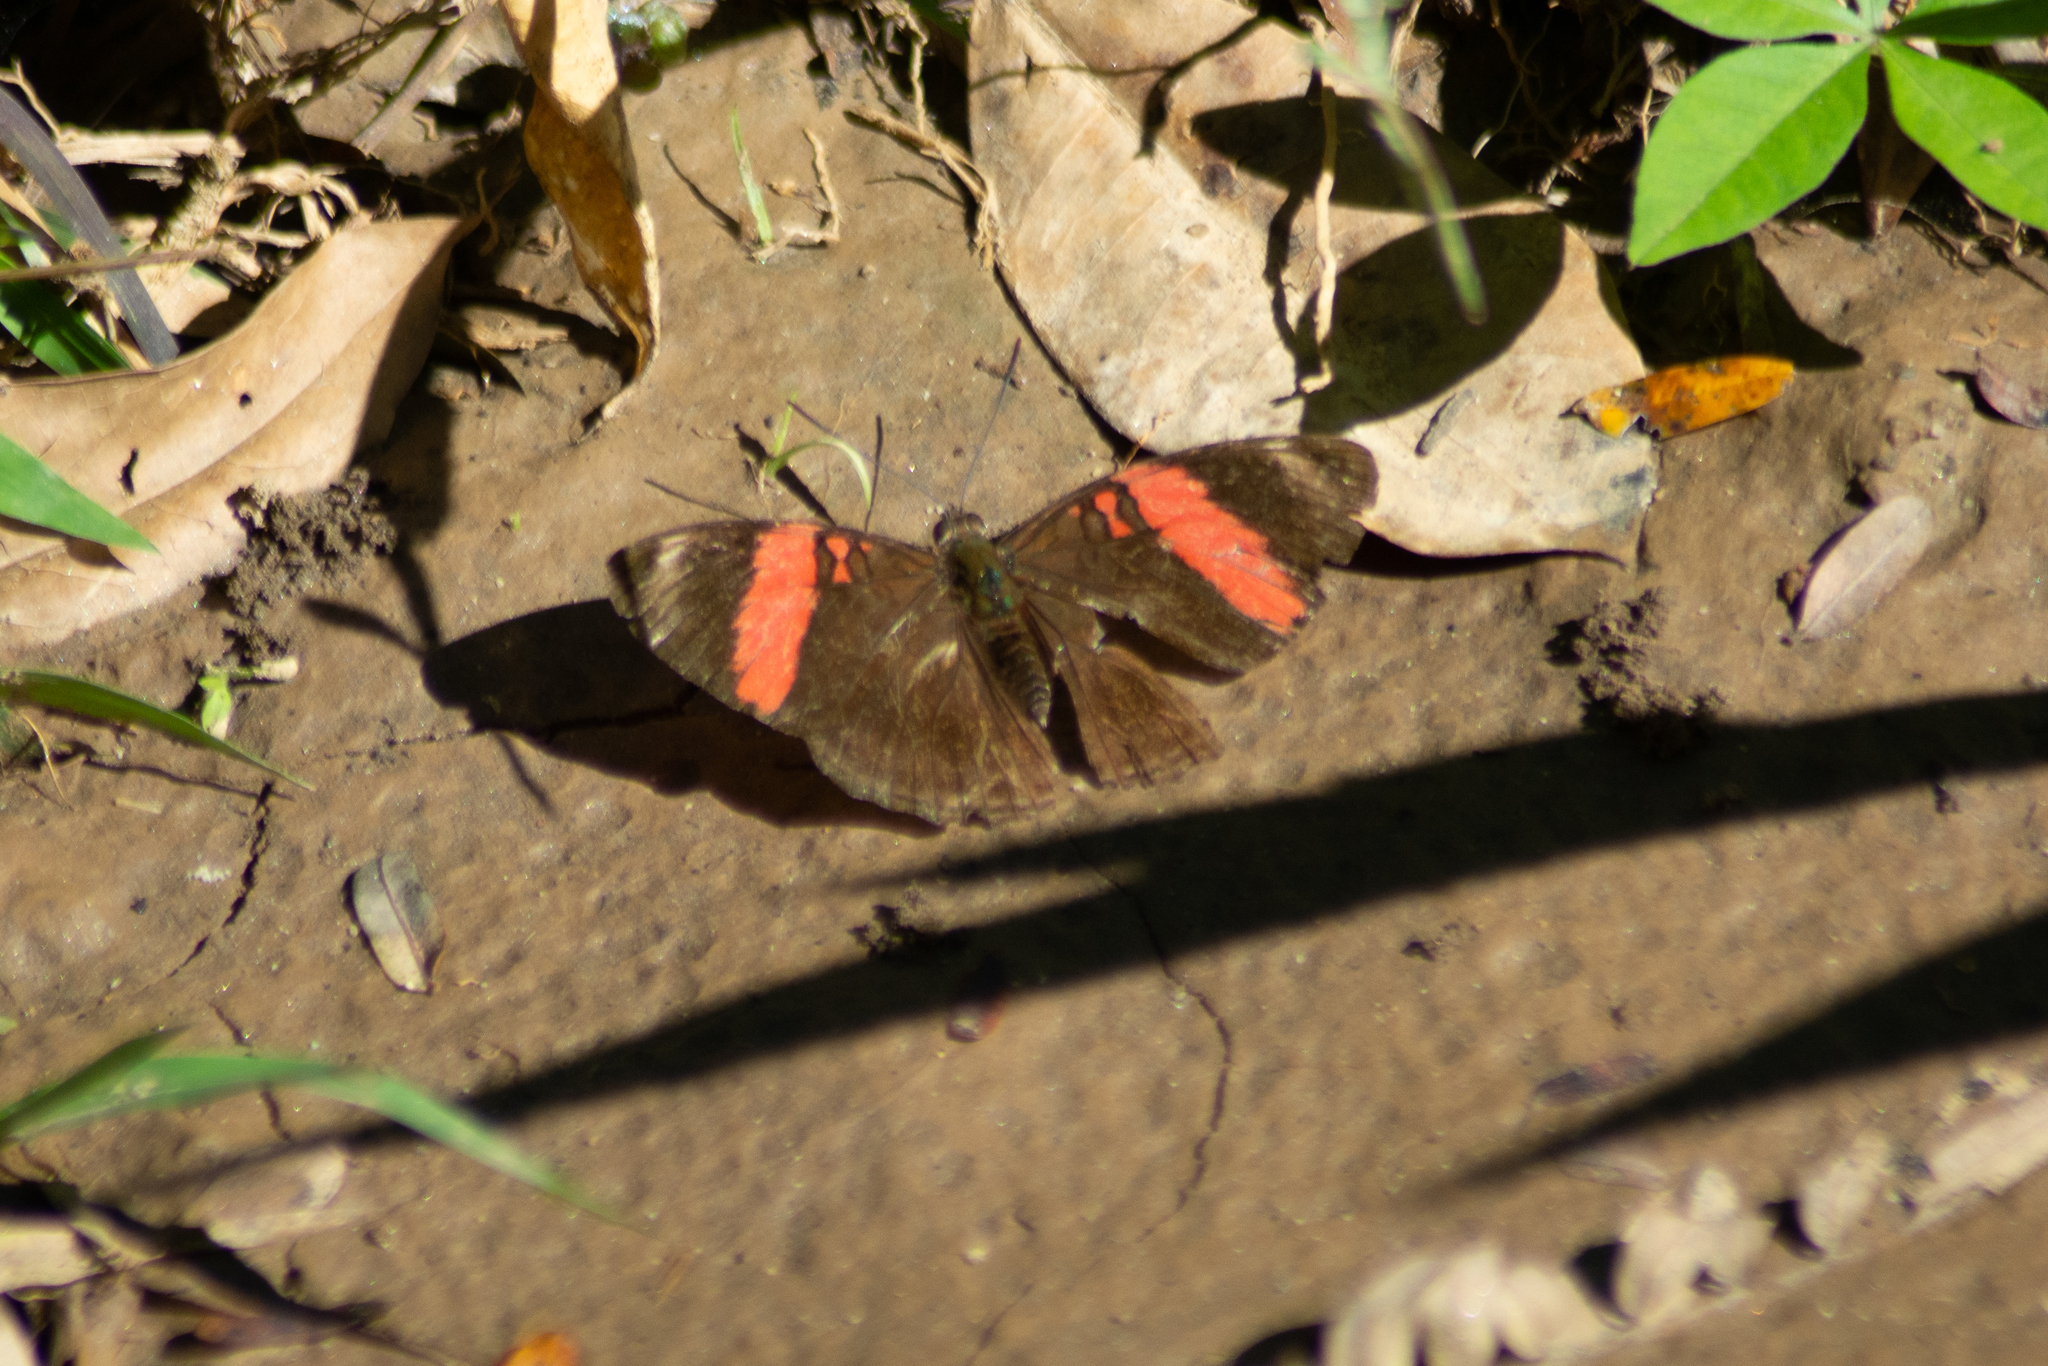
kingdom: Animalia
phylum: Arthropoda
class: Insecta
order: Lepidoptera
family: Nymphalidae
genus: Limenitis
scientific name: Limenitis isis
